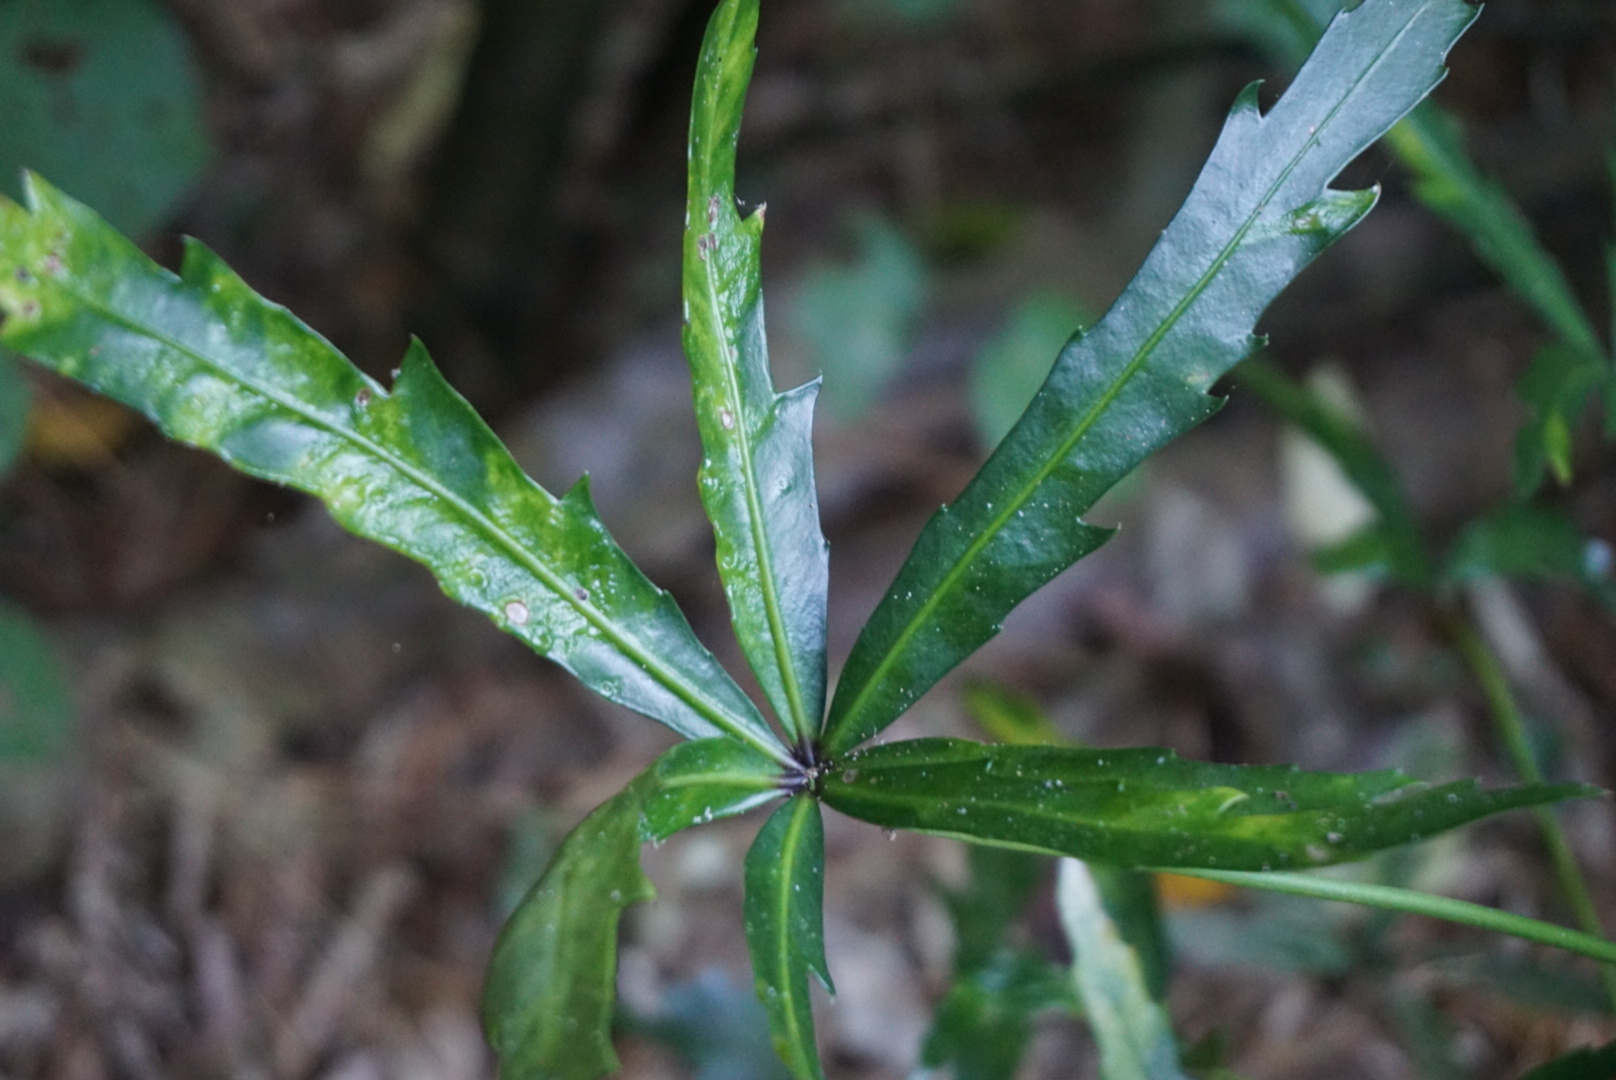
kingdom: Plantae
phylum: Tracheophyta
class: Magnoliopsida
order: Apiales
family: Araliaceae
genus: Pseudopanax
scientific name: Pseudopanax
